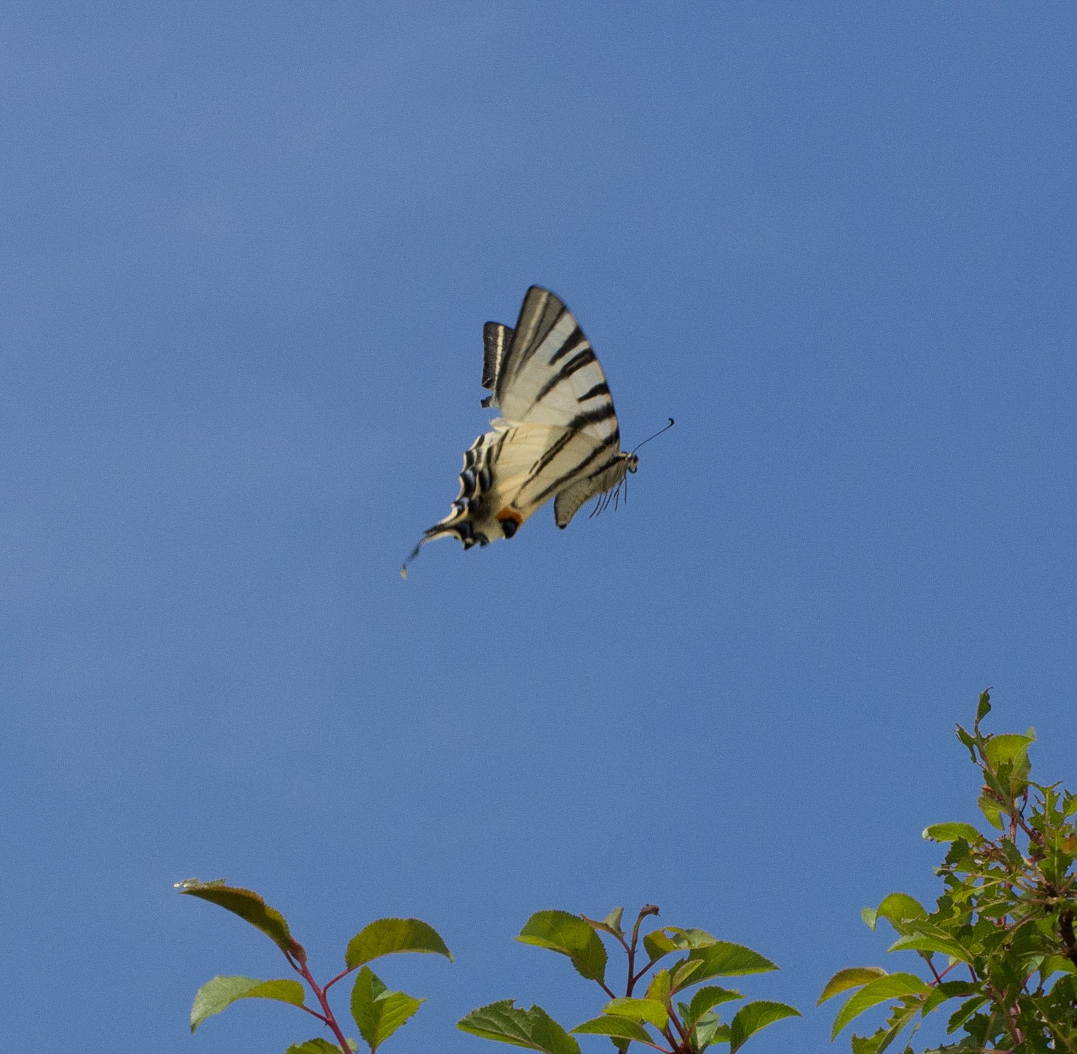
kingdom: Animalia
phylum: Arthropoda
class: Insecta
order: Lepidoptera
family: Papilionidae
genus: Iphiclides
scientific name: Iphiclides podalirius
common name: Scarce swallowtail
